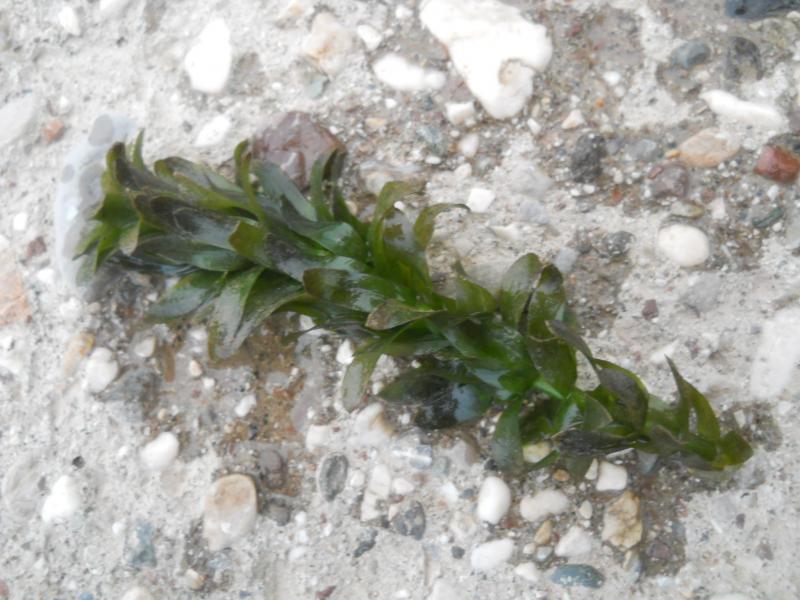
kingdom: Plantae
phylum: Tracheophyta
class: Liliopsida
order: Alismatales
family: Hydrocharitaceae
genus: Elodea
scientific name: Elodea densa
